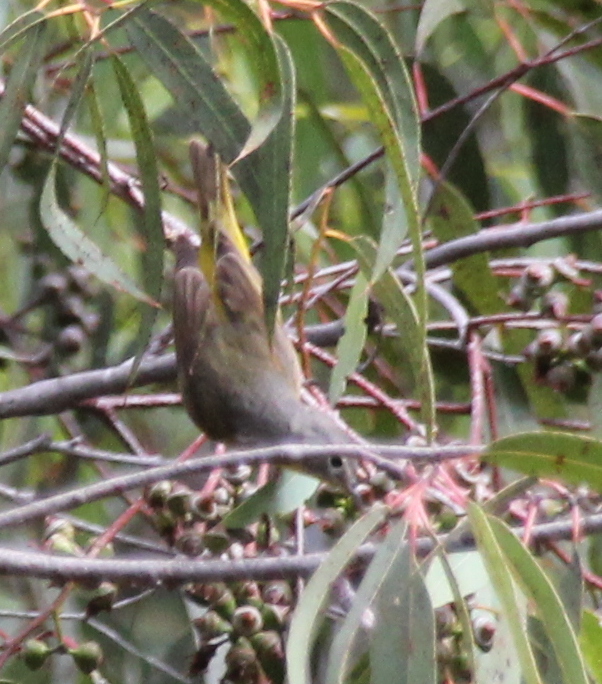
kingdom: Animalia
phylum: Chordata
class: Aves
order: Passeriformes
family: Parulidae
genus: Leiothlypis
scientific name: Leiothlypis ruficapilla
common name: Nashville warbler
